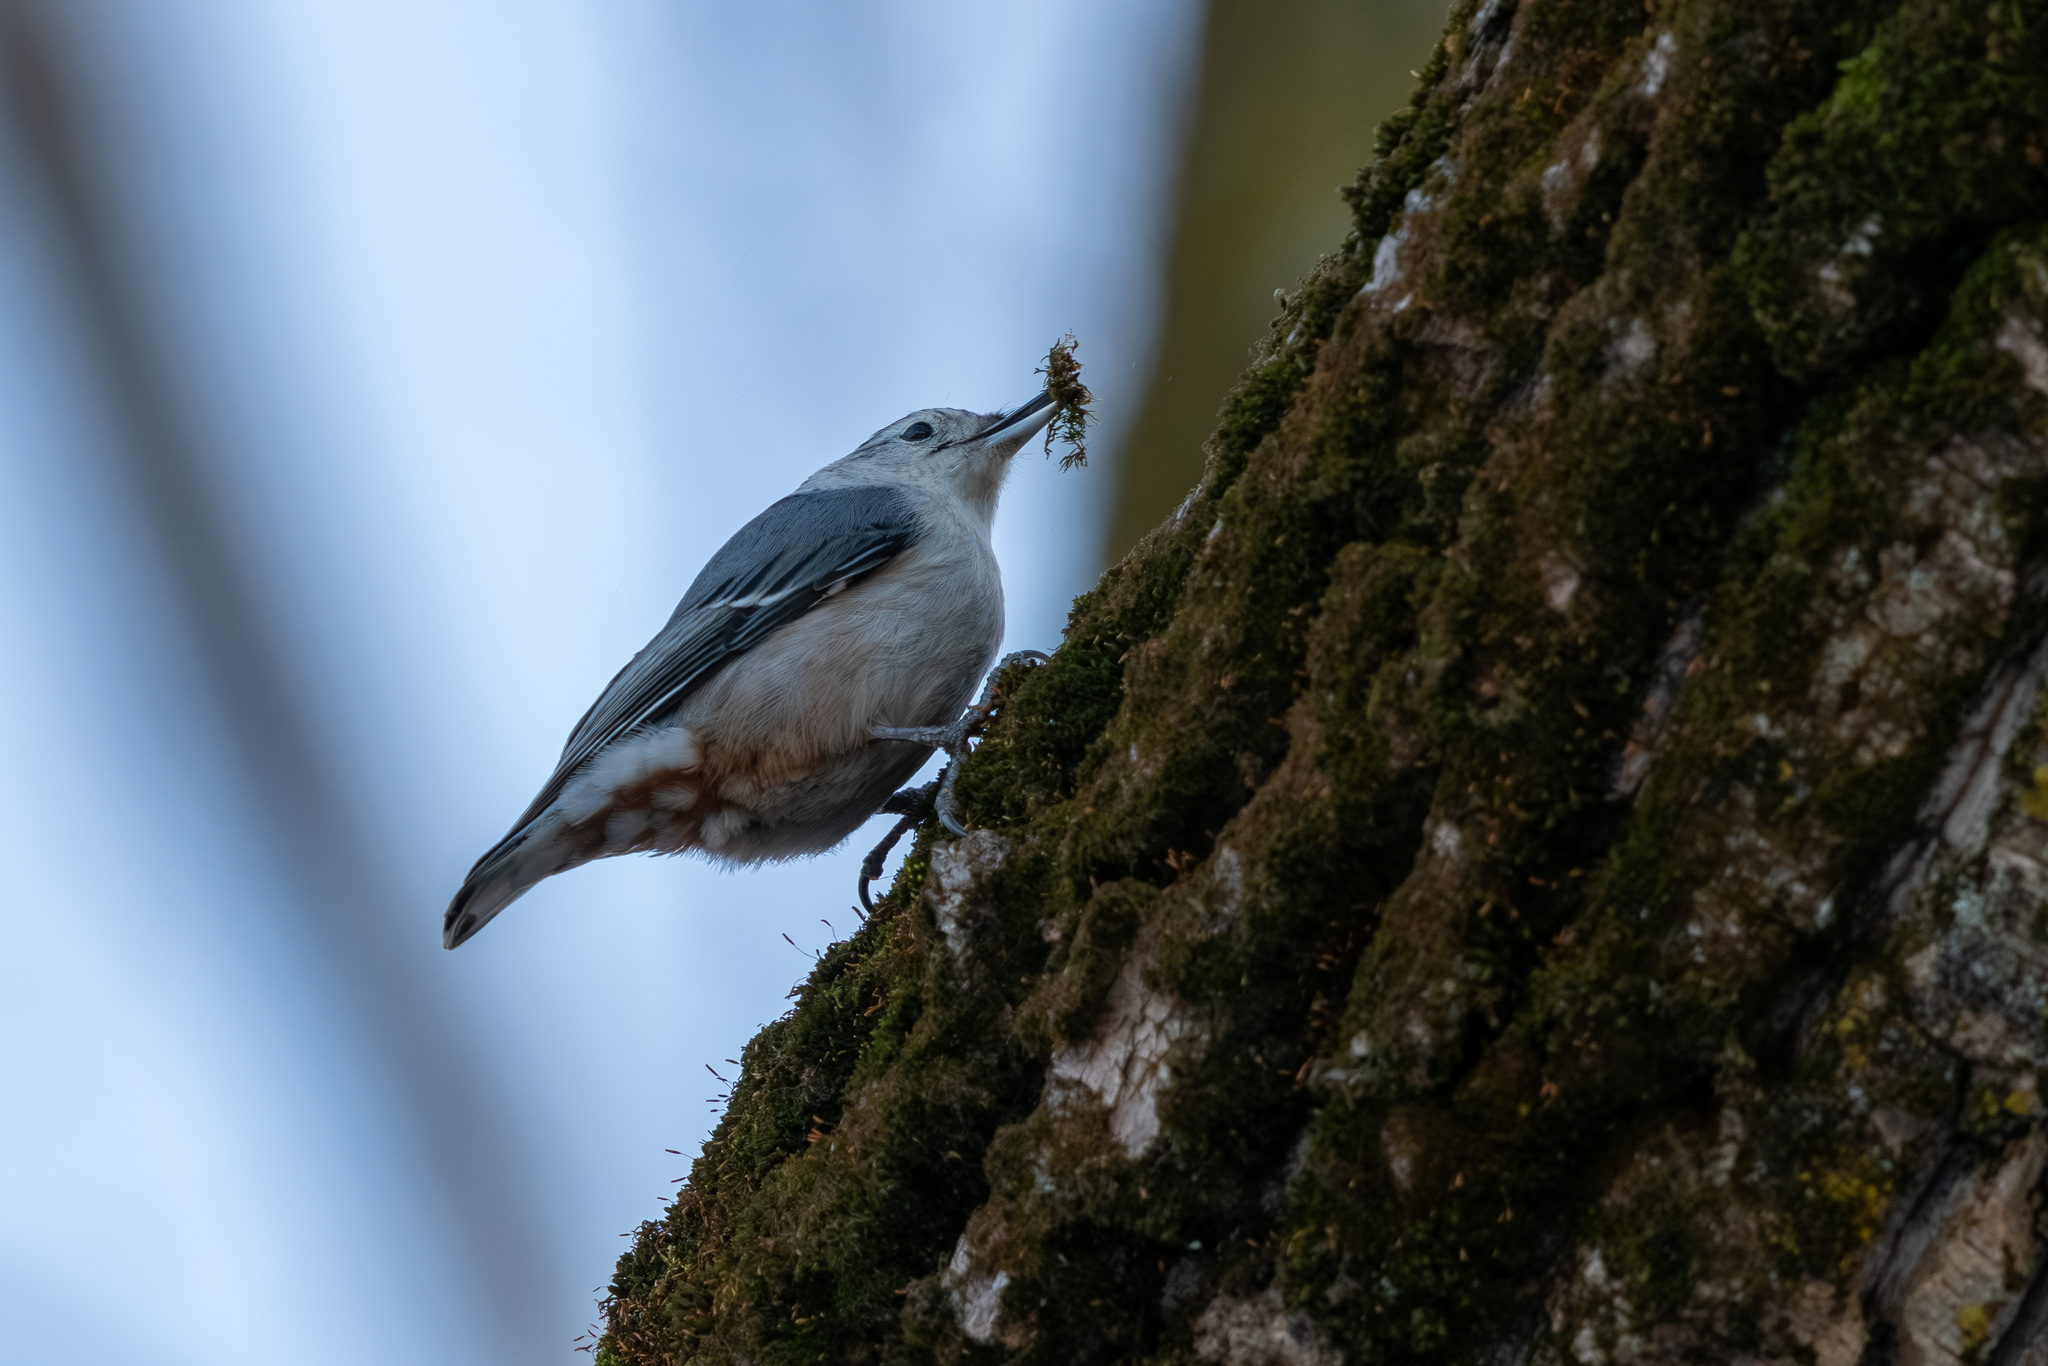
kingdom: Animalia
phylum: Chordata
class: Aves
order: Passeriformes
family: Sittidae
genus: Sitta
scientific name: Sitta carolinensis
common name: White-breasted nuthatch
